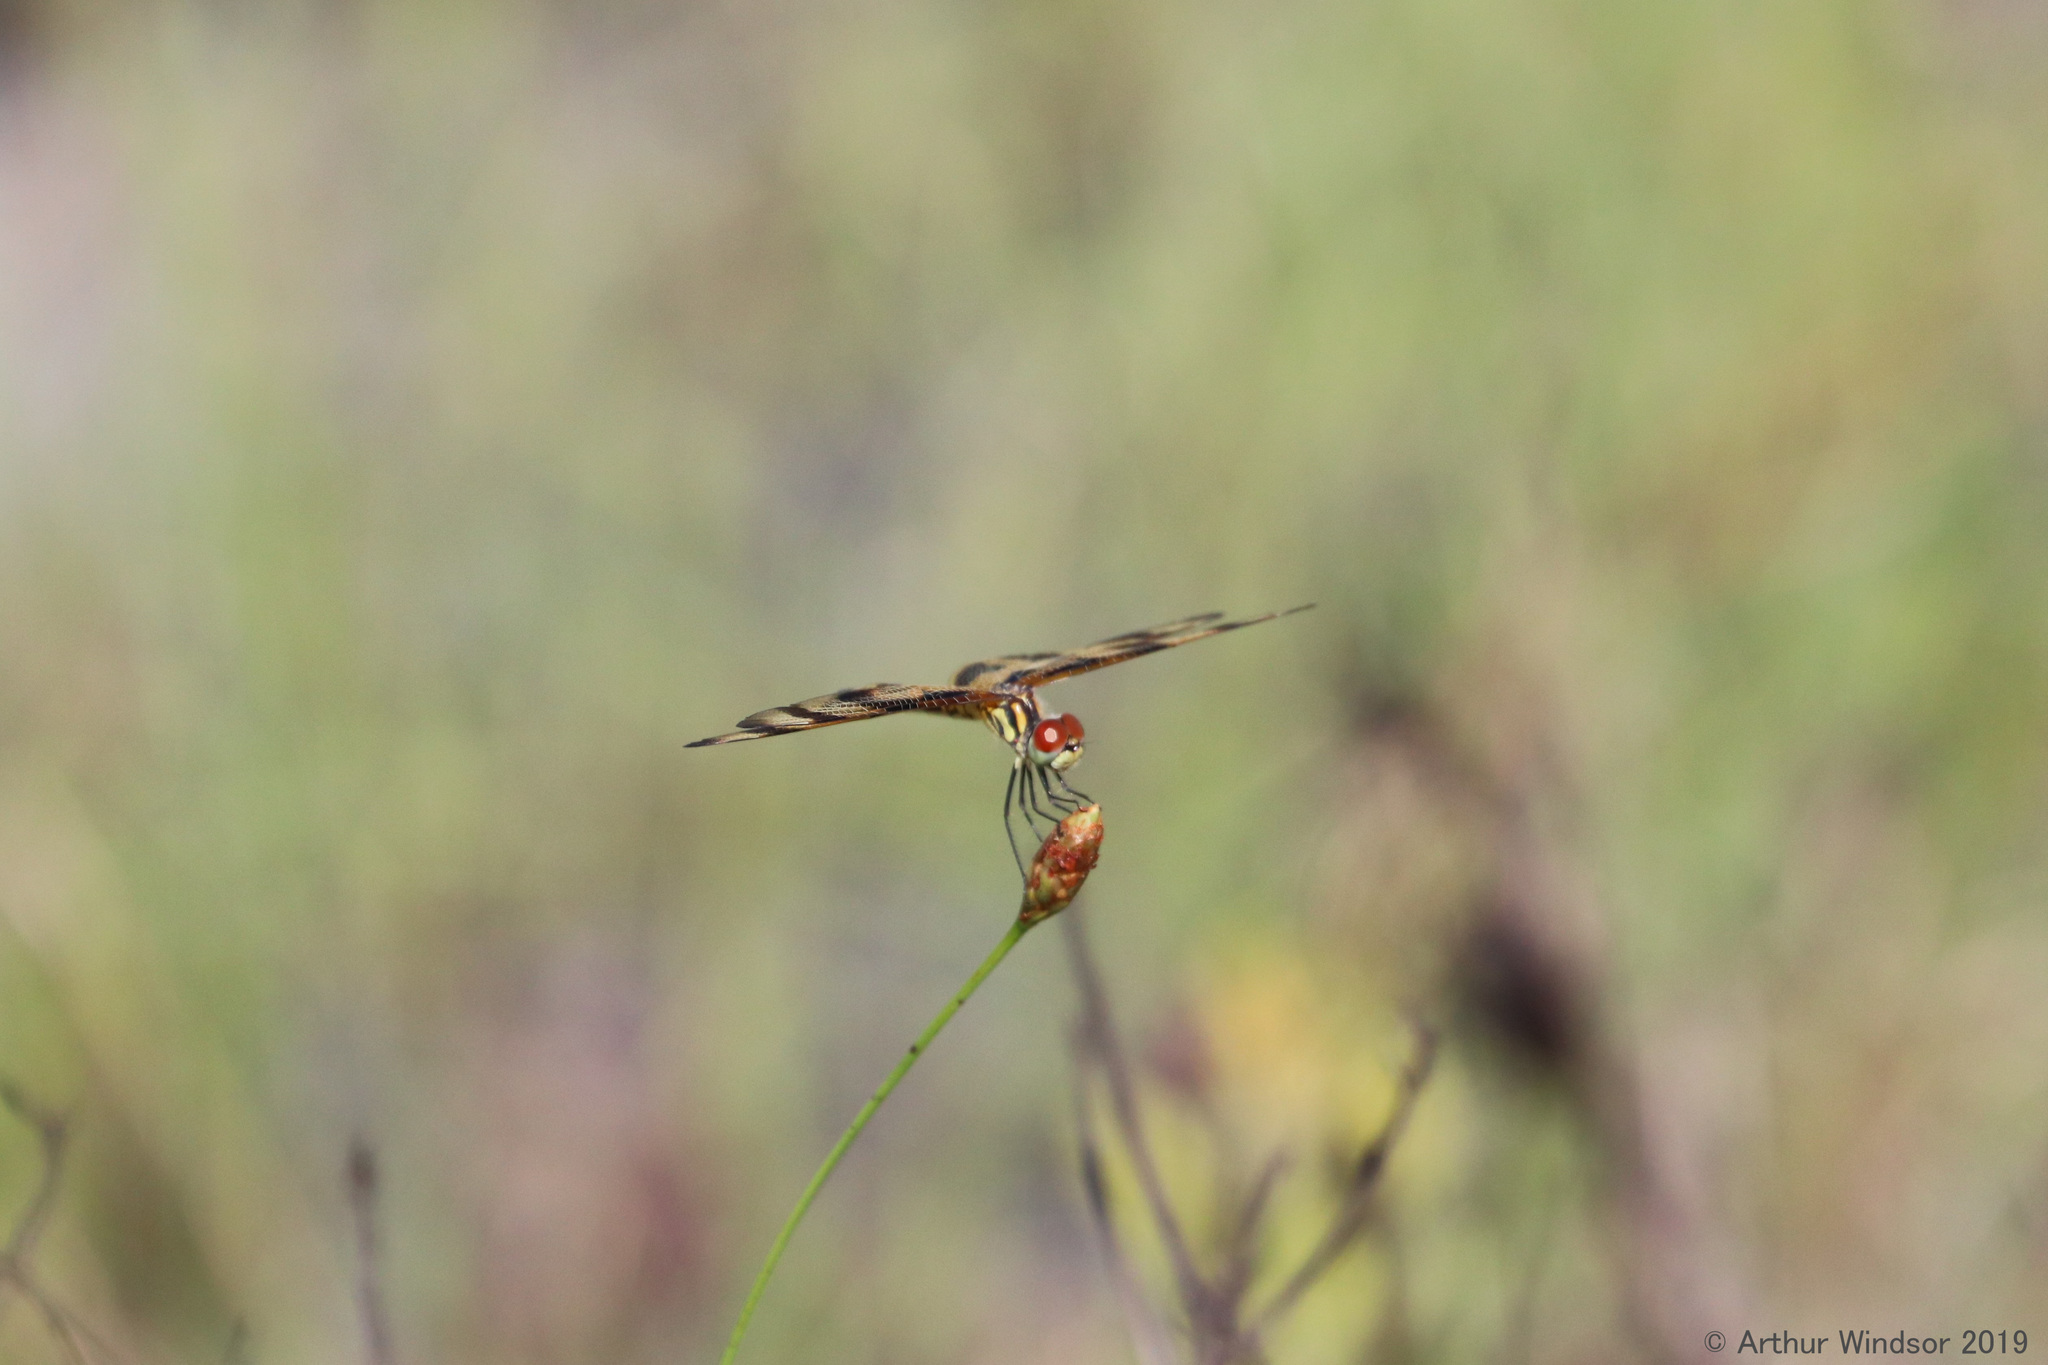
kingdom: Animalia
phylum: Arthropoda
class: Insecta
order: Odonata
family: Libellulidae
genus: Celithemis
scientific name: Celithemis eponina
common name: Halloween pennant
